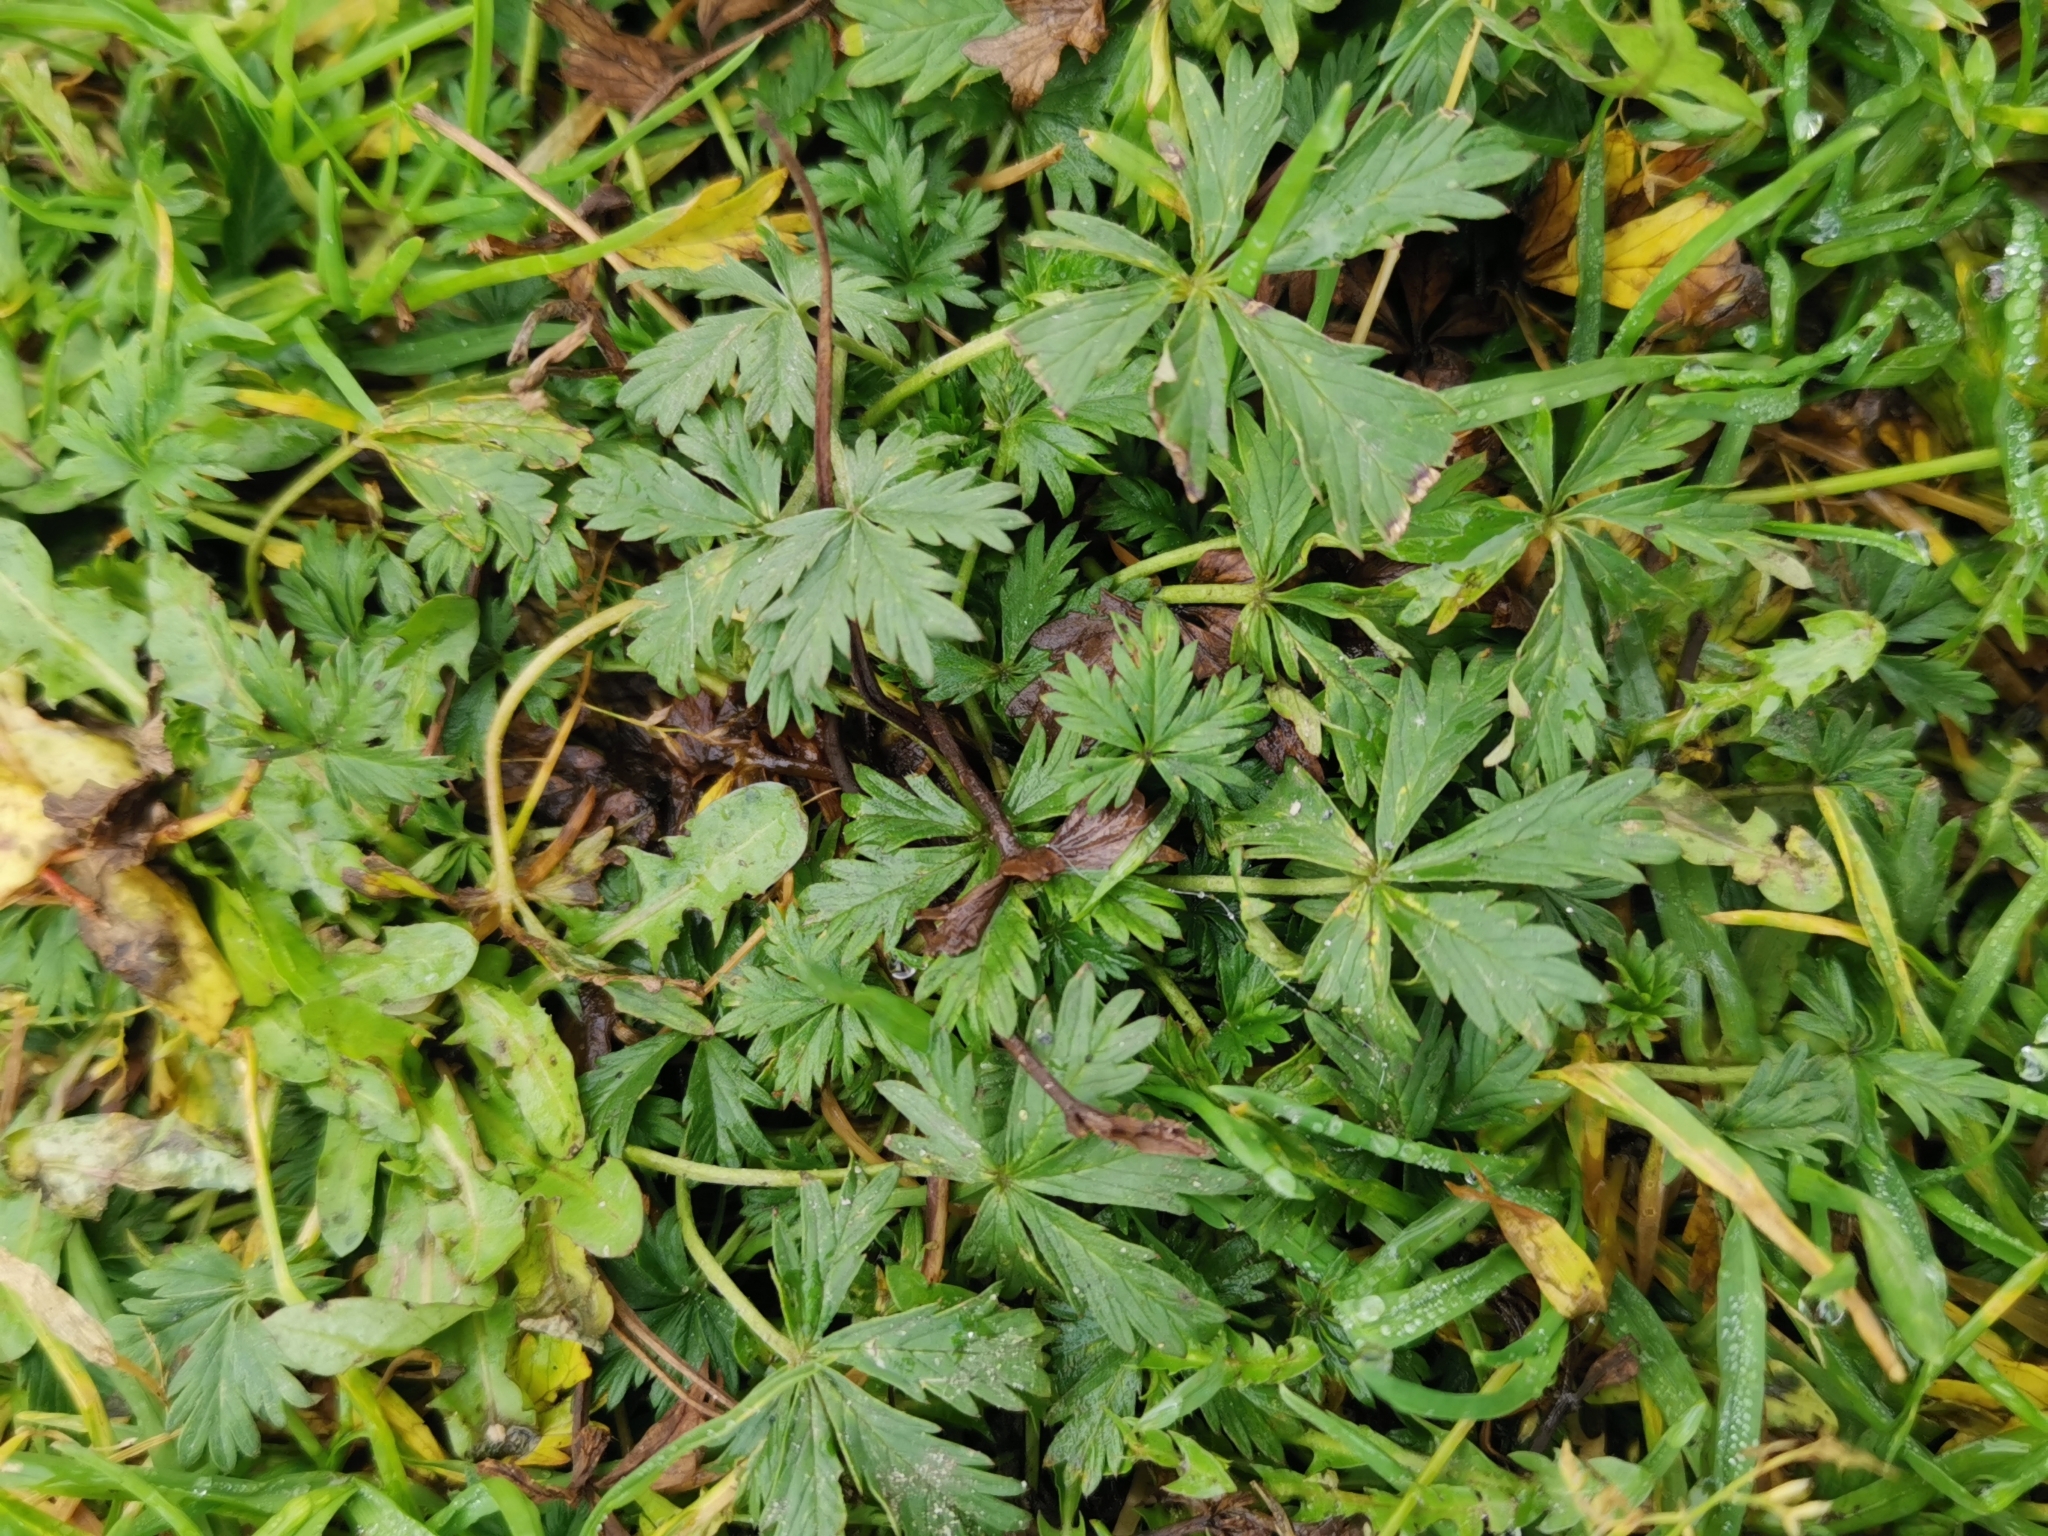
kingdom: Plantae
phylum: Tracheophyta
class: Magnoliopsida
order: Rosales
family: Rosaceae
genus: Potentilla
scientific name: Potentilla argentea
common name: Hoary cinquefoil
